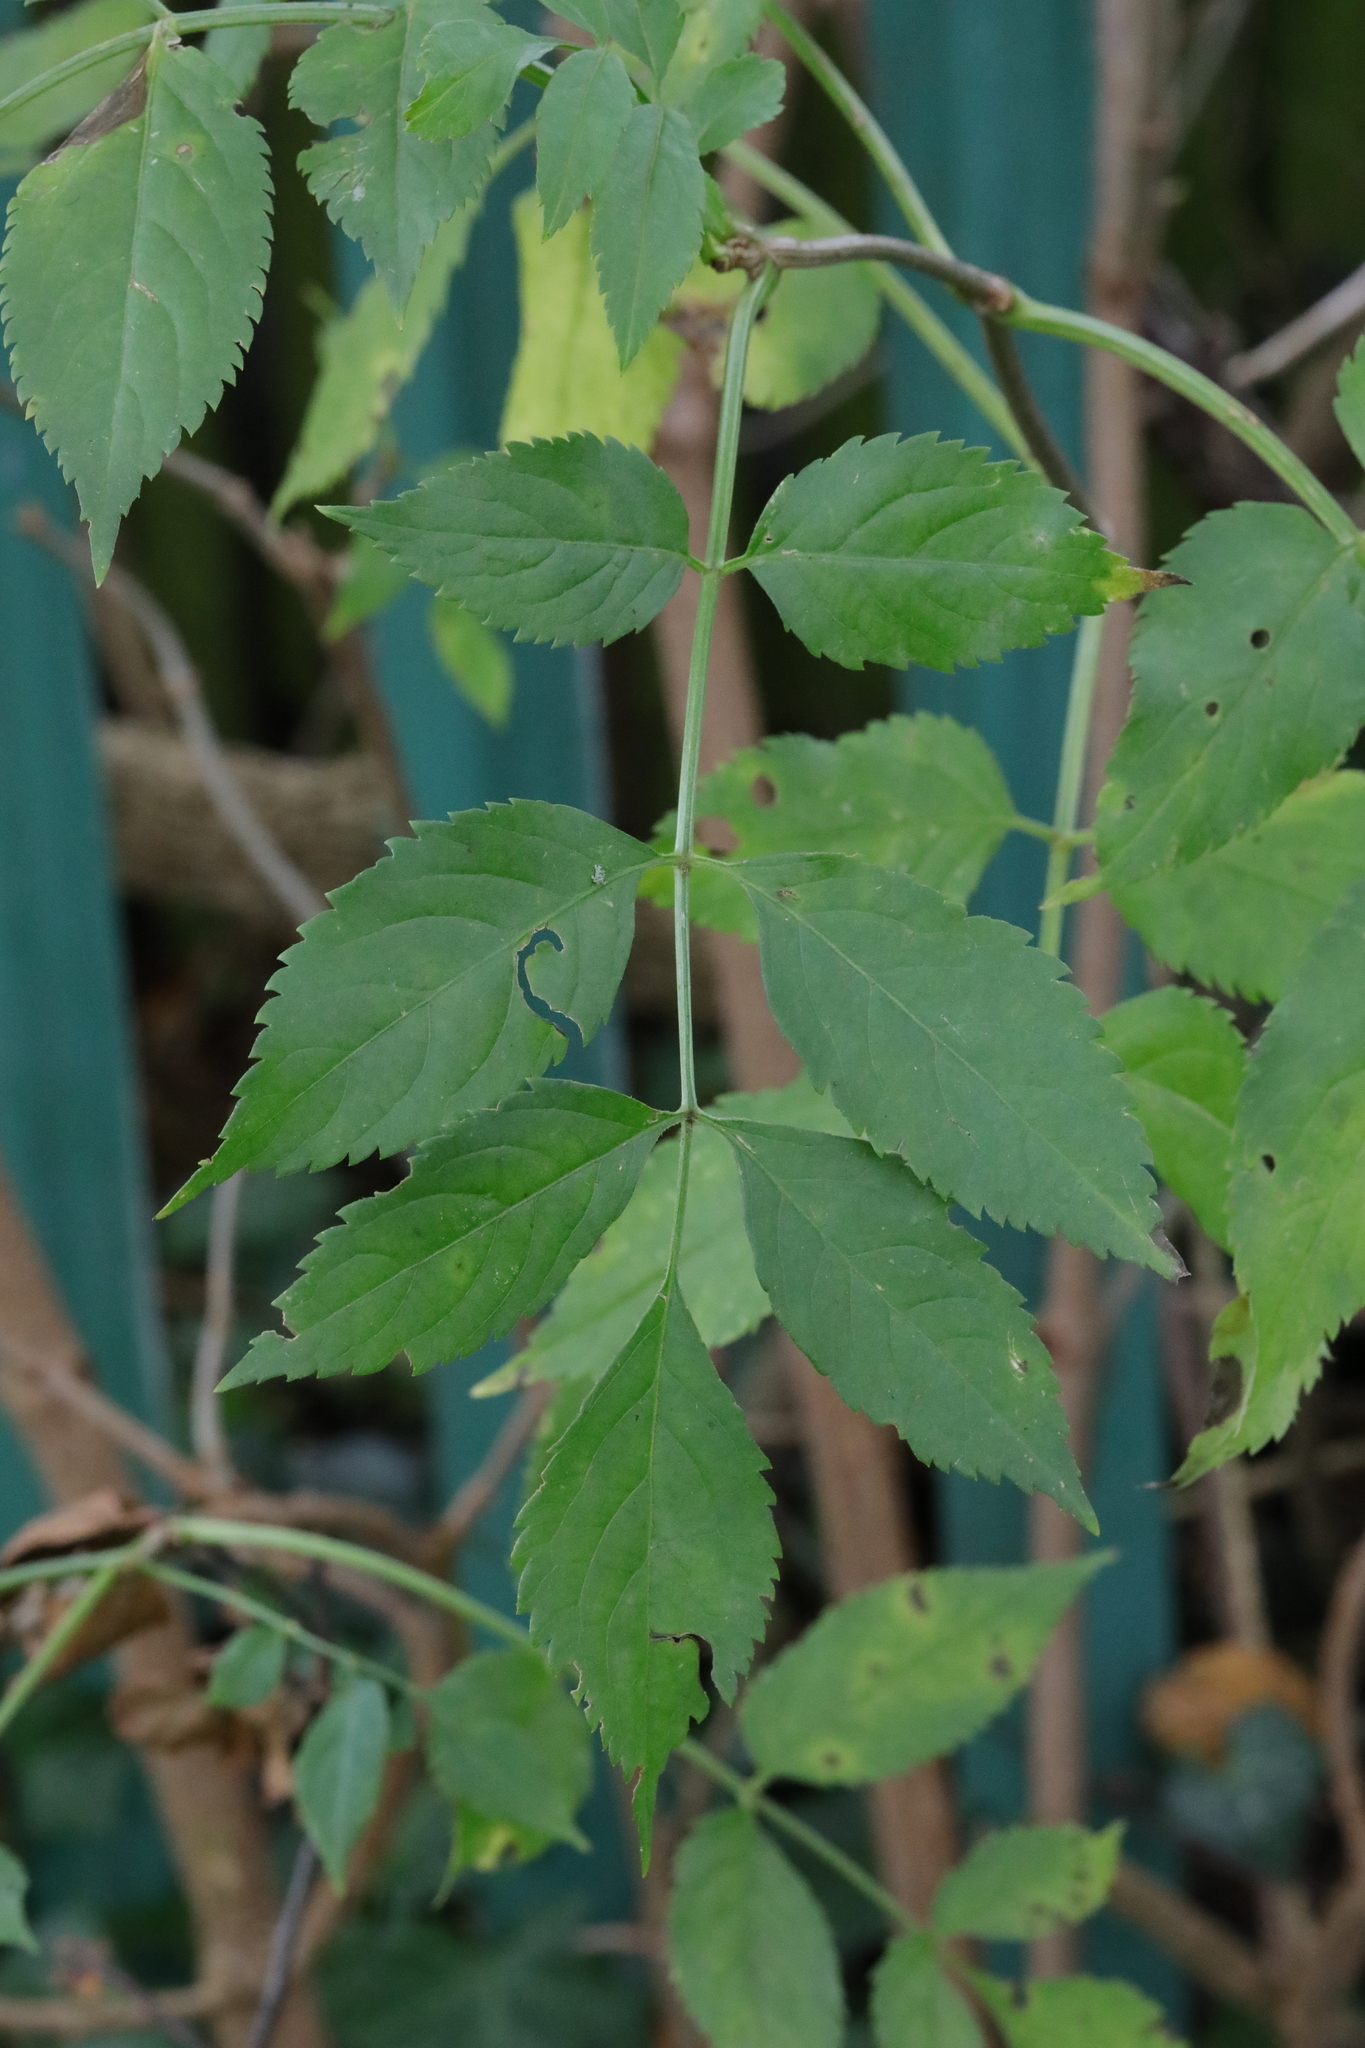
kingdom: Plantae
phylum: Tracheophyta
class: Magnoliopsida
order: Dipsacales
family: Viburnaceae
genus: Sambucus
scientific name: Sambucus nigra
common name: Elder
